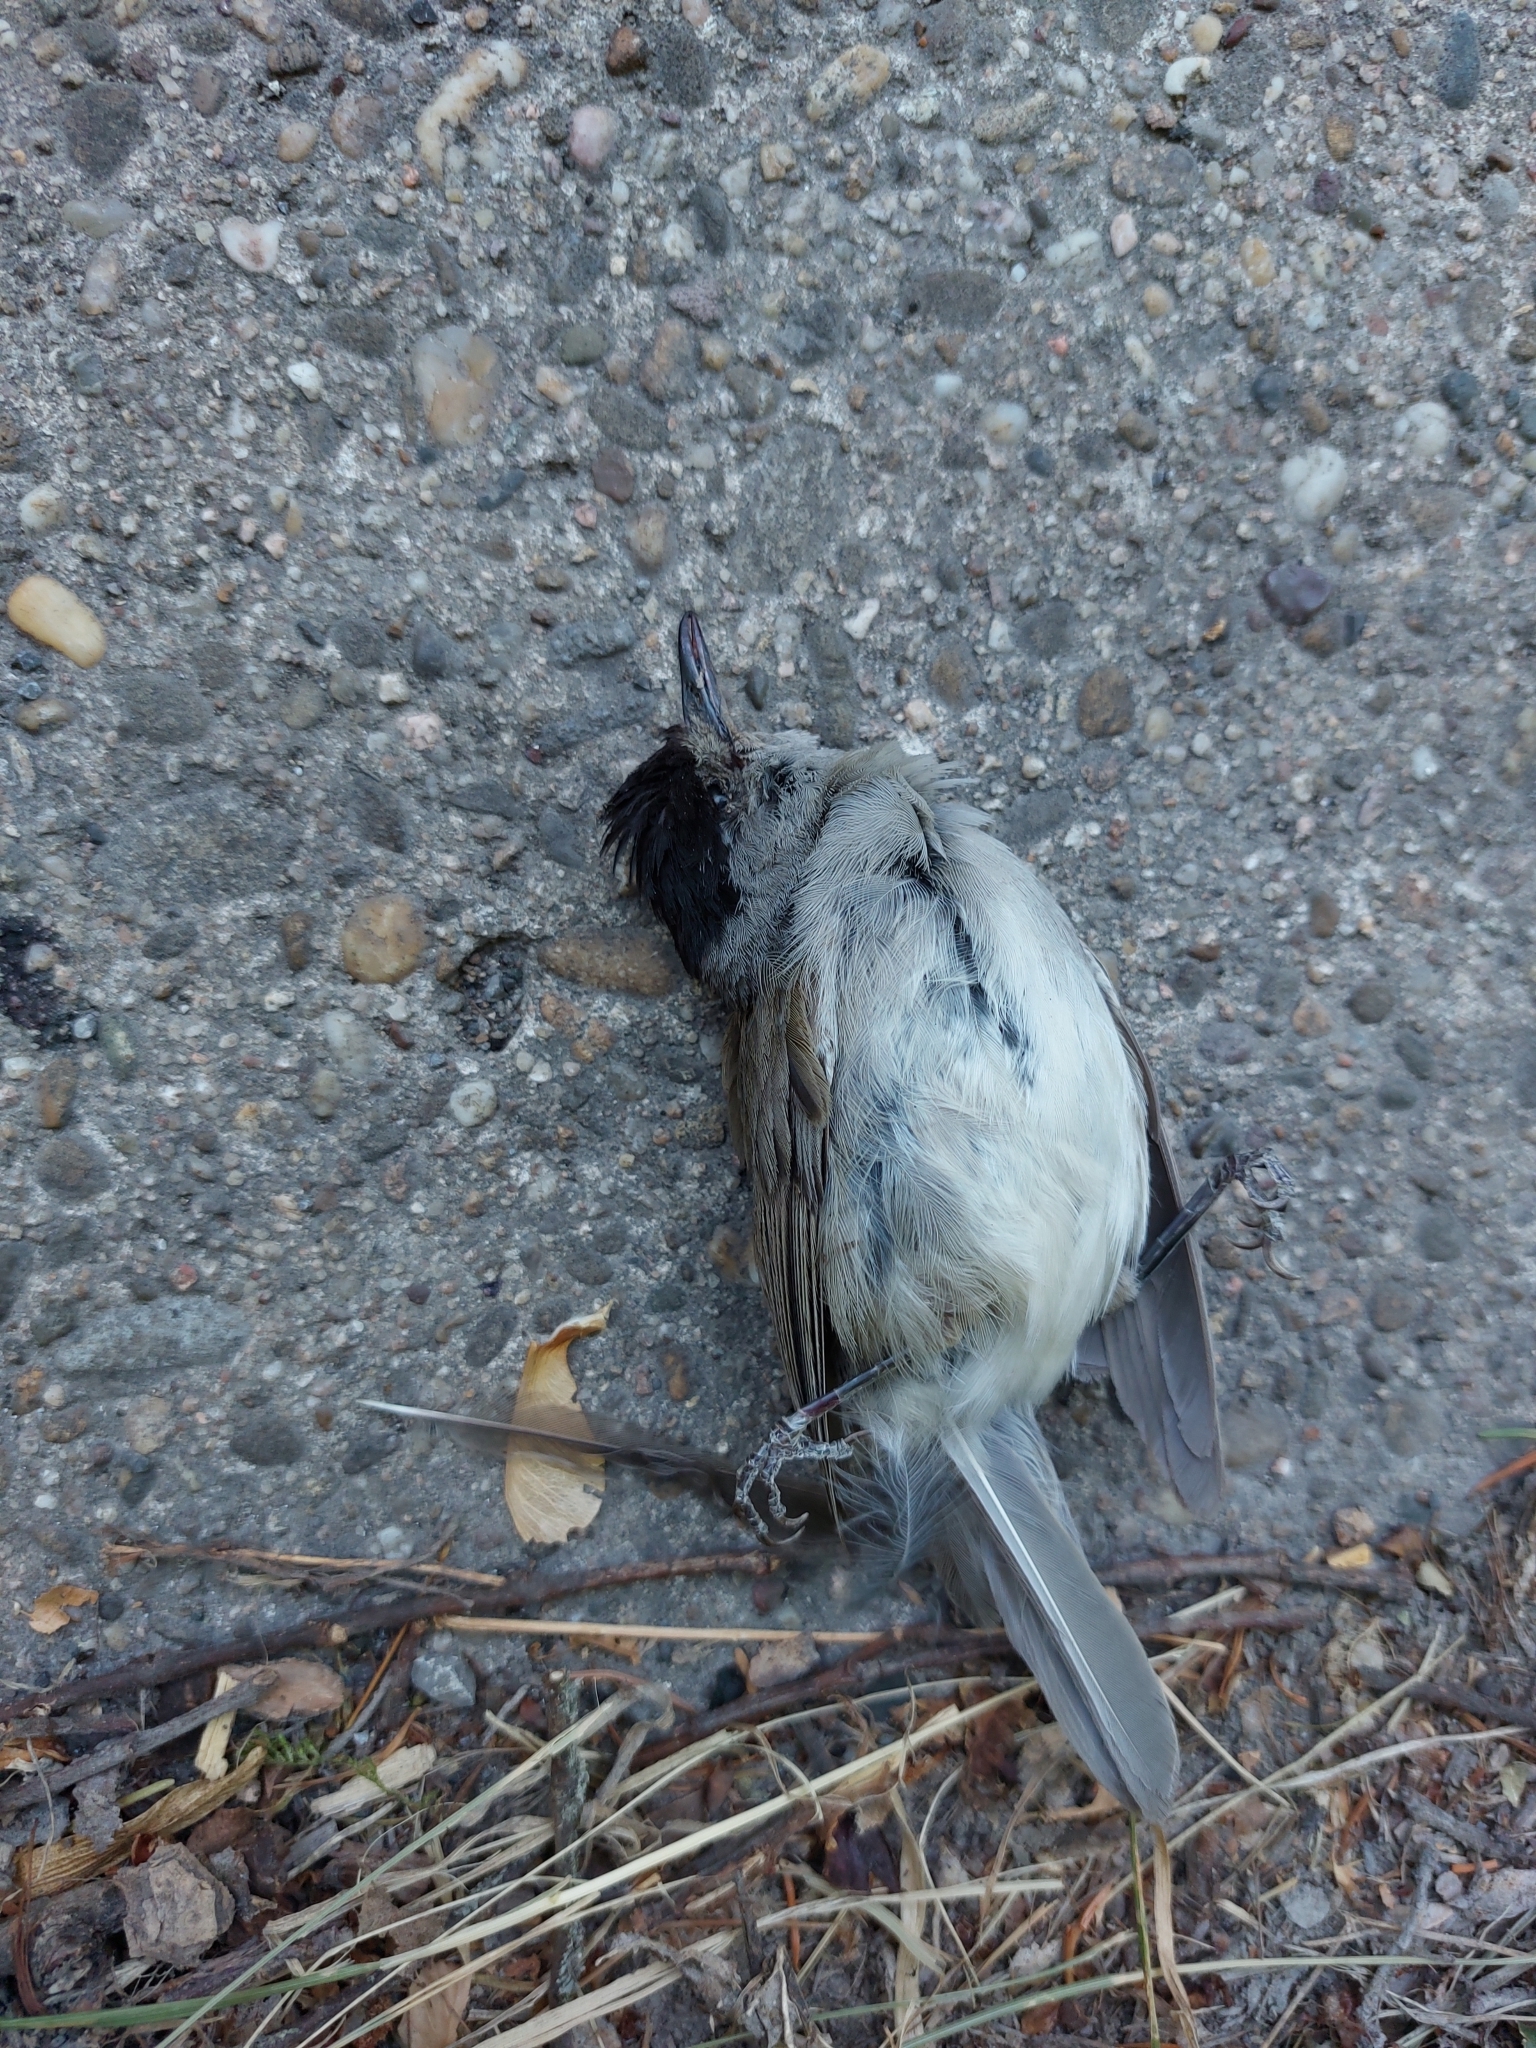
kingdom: Animalia
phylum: Chordata
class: Aves
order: Passeriformes
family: Sylviidae
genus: Sylvia
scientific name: Sylvia atricapilla
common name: Eurasian blackcap
